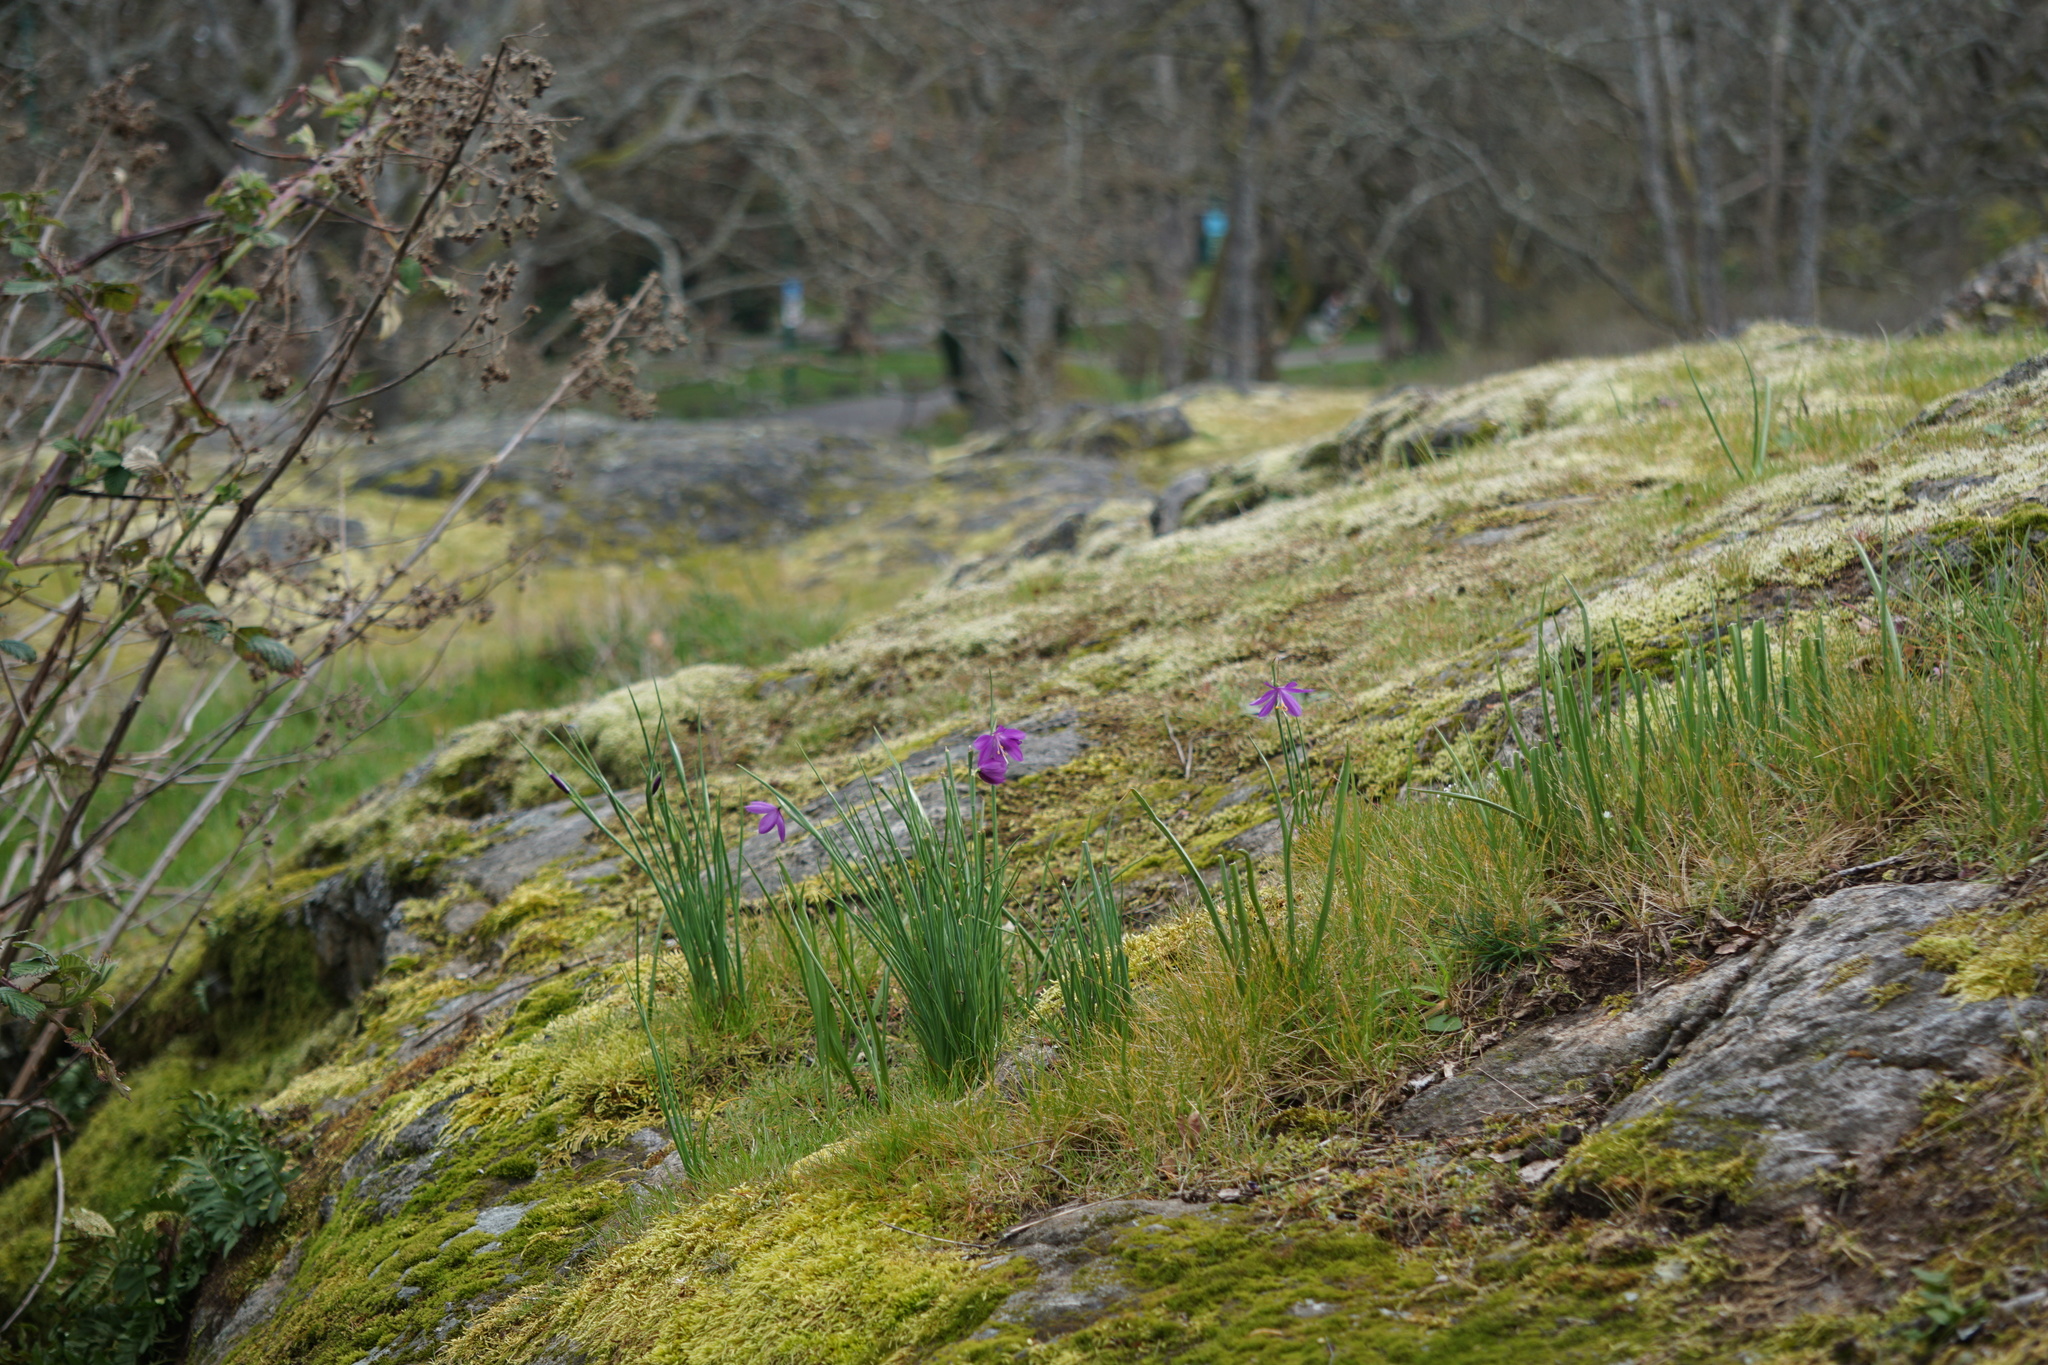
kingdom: Plantae
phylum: Tracheophyta
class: Liliopsida
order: Asparagales
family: Iridaceae
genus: Olsynium
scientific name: Olsynium douglasii
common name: Douglas' grasswidow
